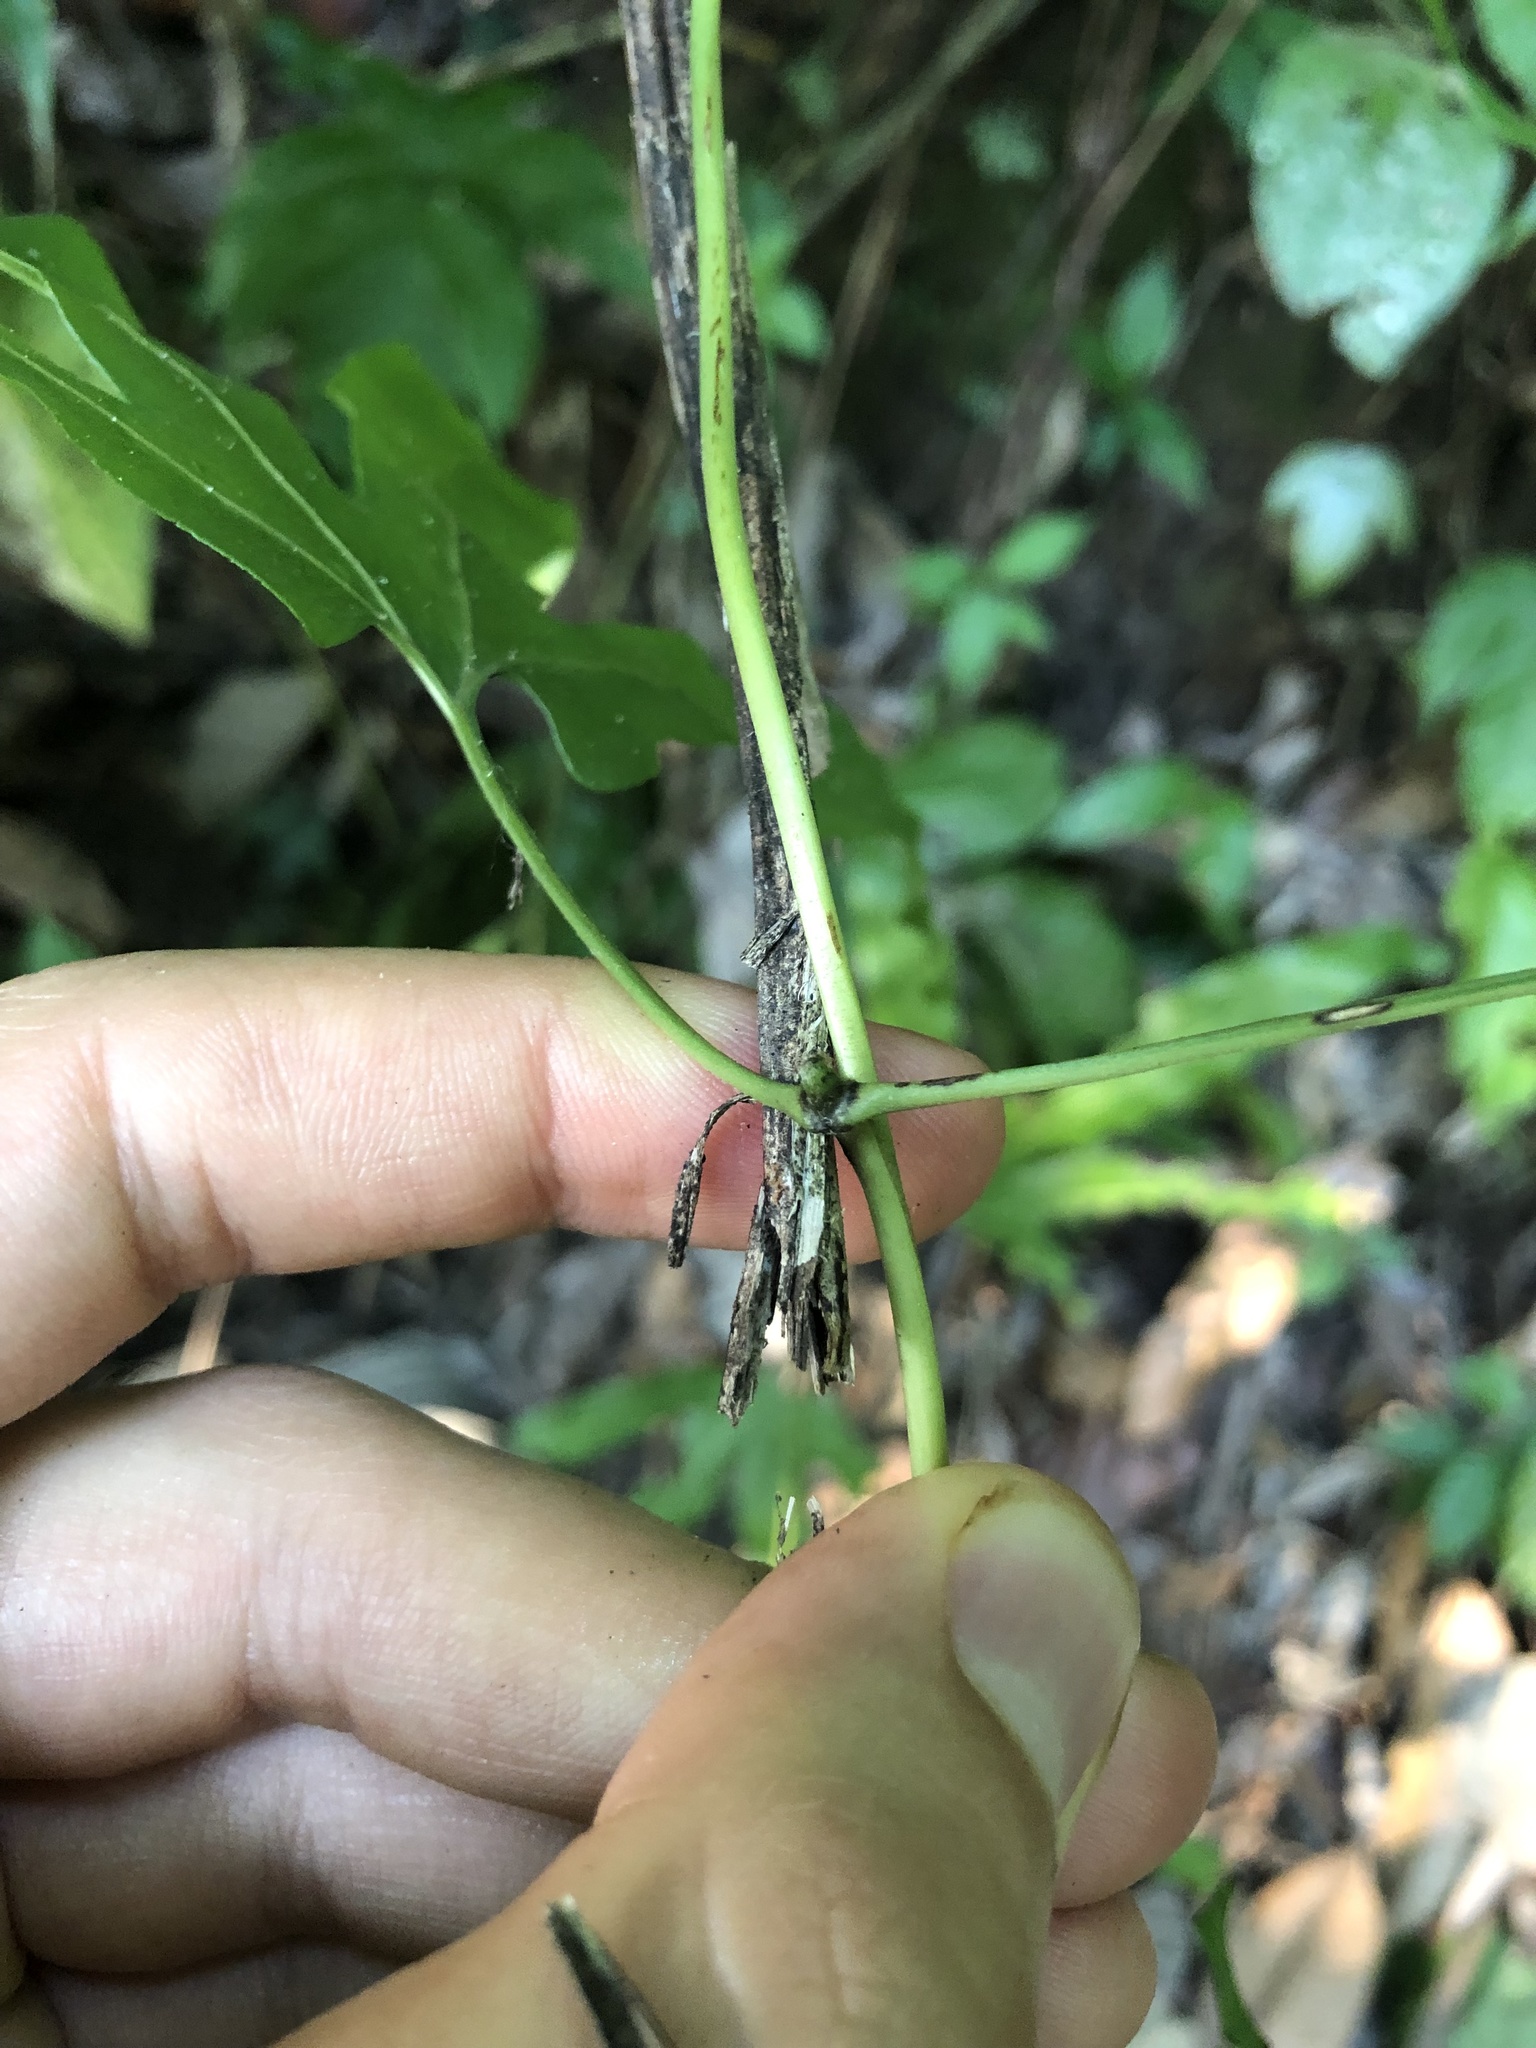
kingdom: Plantae
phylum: Tracheophyta
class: Polypodiopsida
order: Schizaeales
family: Lygodiaceae
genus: Lygodium
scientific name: Lygodium heterodoxum
